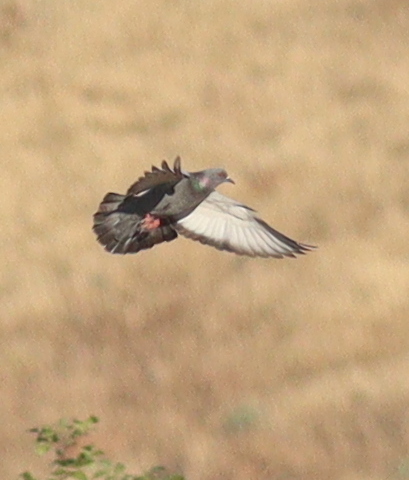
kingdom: Animalia
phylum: Chordata
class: Aves
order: Columbiformes
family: Columbidae
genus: Columba
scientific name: Columba livia
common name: Rock pigeon
